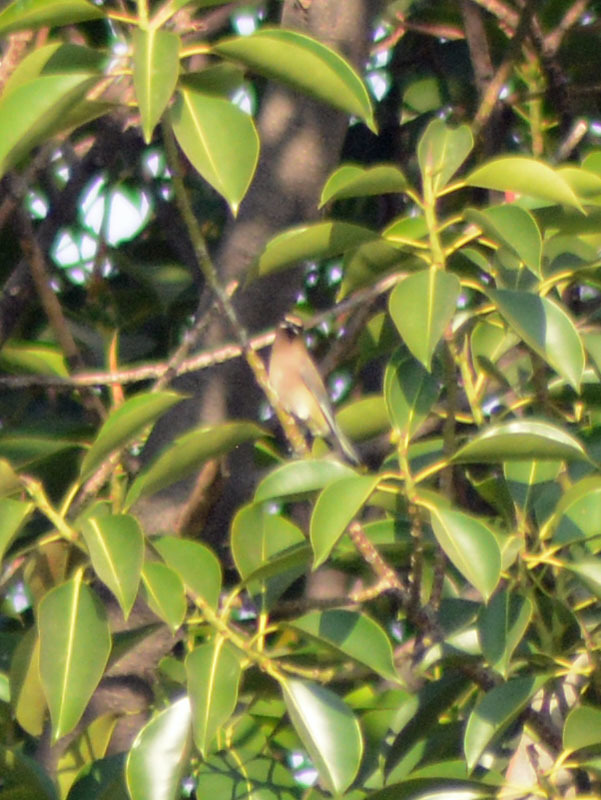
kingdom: Animalia
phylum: Chordata
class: Aves
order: Passeriformes
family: Bombycillidae
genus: Bombycilla
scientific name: Bombycilla cedrorum
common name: Cedar waxwing
